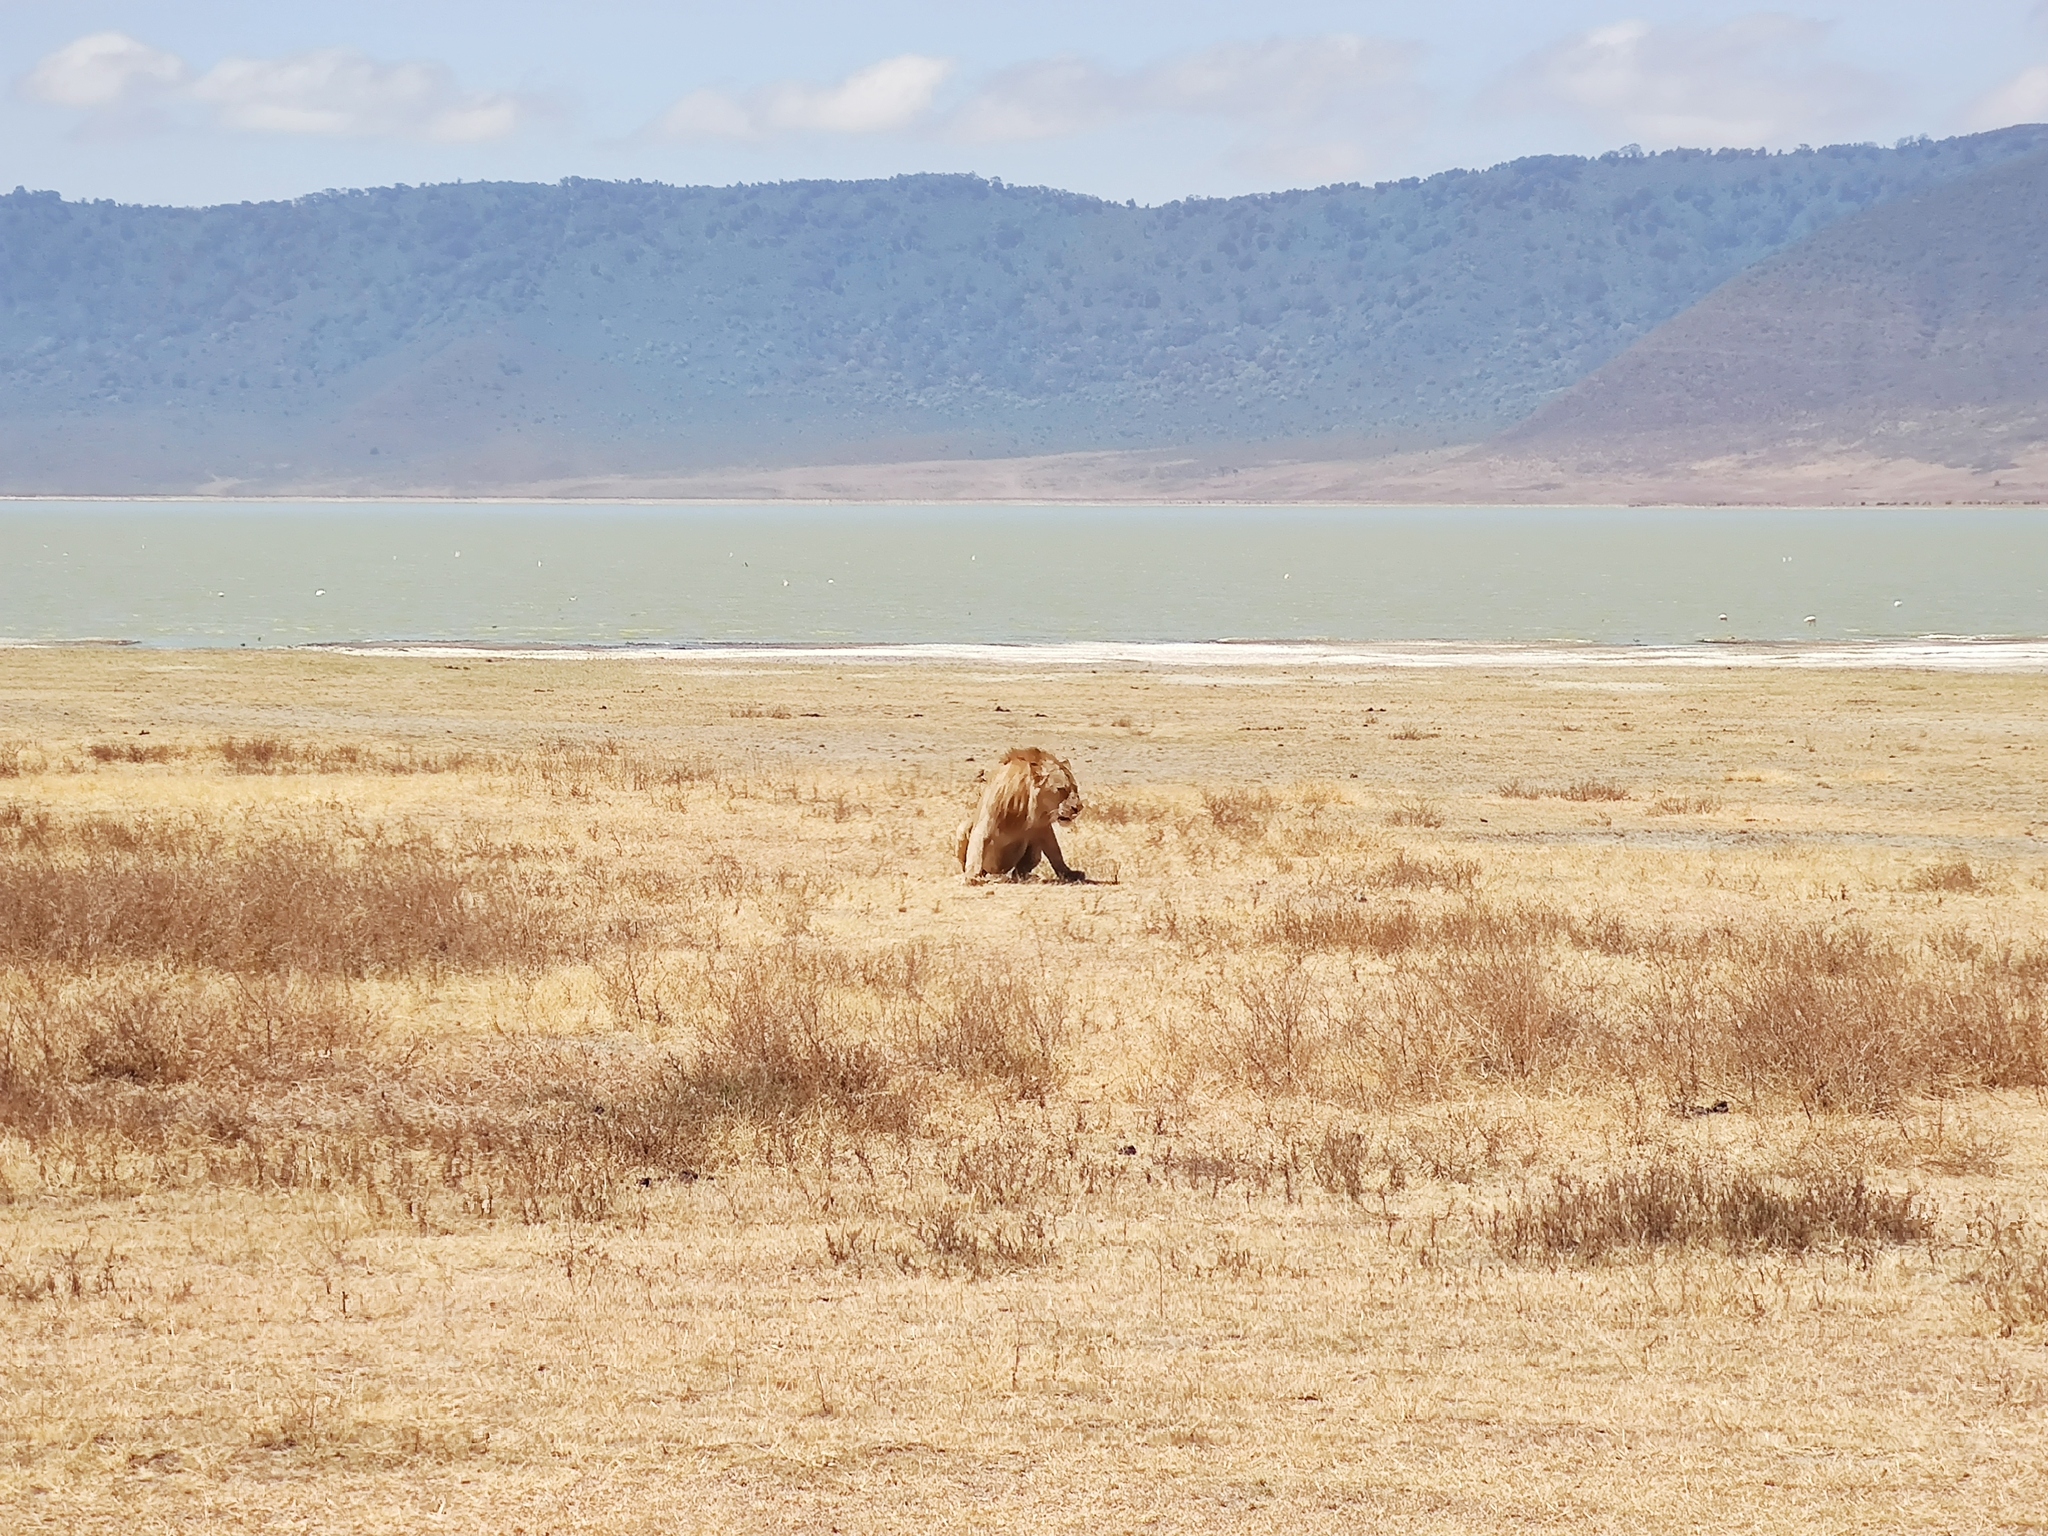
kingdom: Animalia
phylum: Chordata
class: Mammalia
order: Carnivora
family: Felidae
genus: Panthera
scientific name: Panthera leo
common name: Lion
